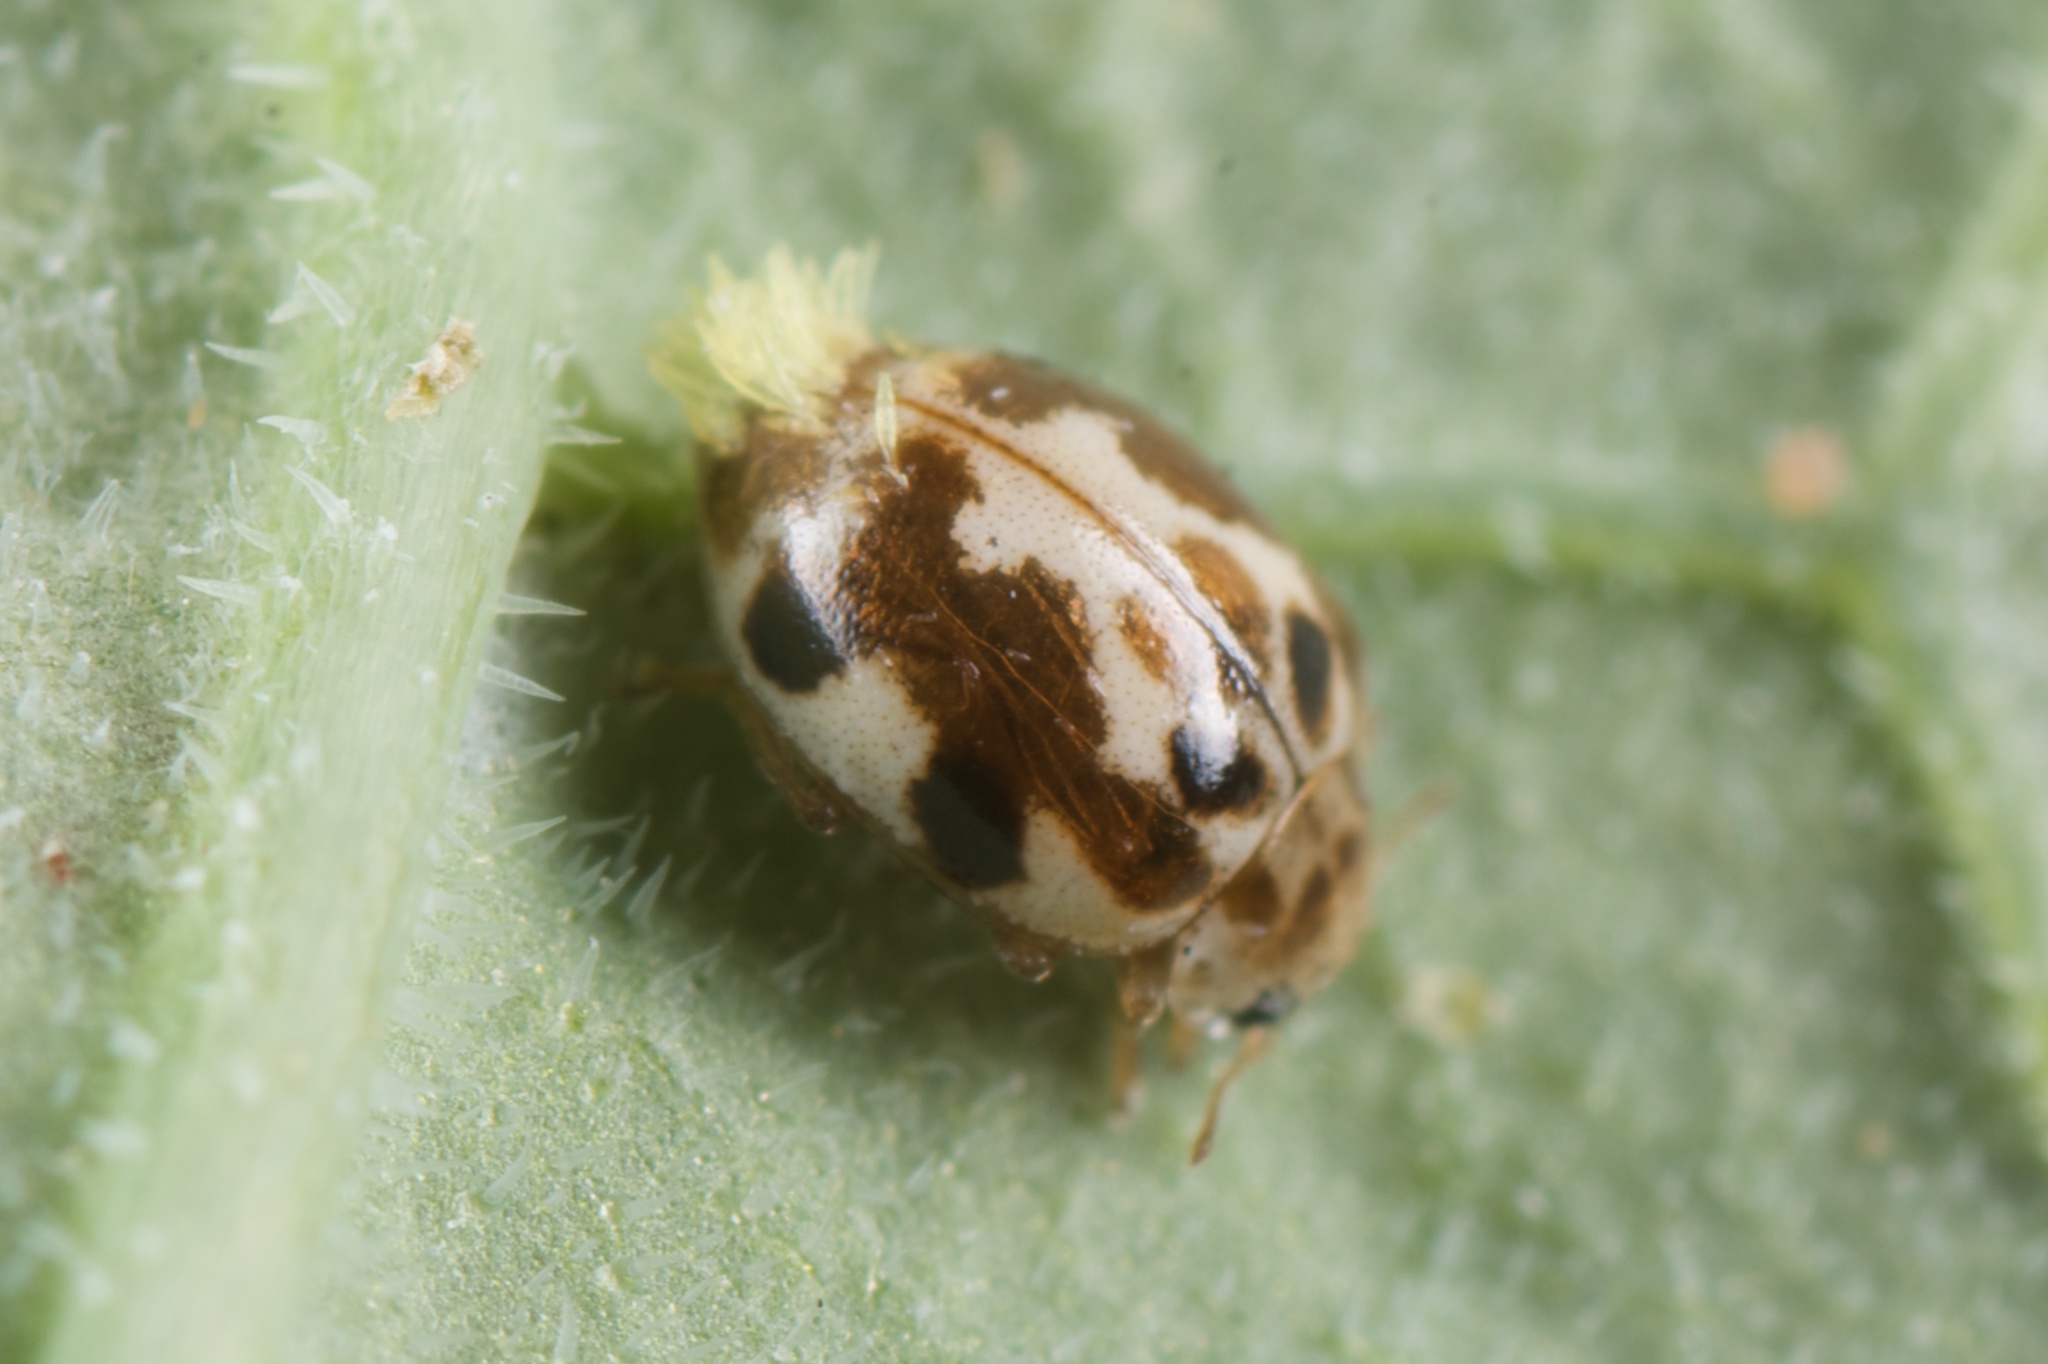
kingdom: Animalia
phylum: Arthropoda
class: Insecta
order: Coleoptera
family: Coccinellidae
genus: Psyllobora
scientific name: Psyllobora vigintimaculata
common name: Ladybird beetle
